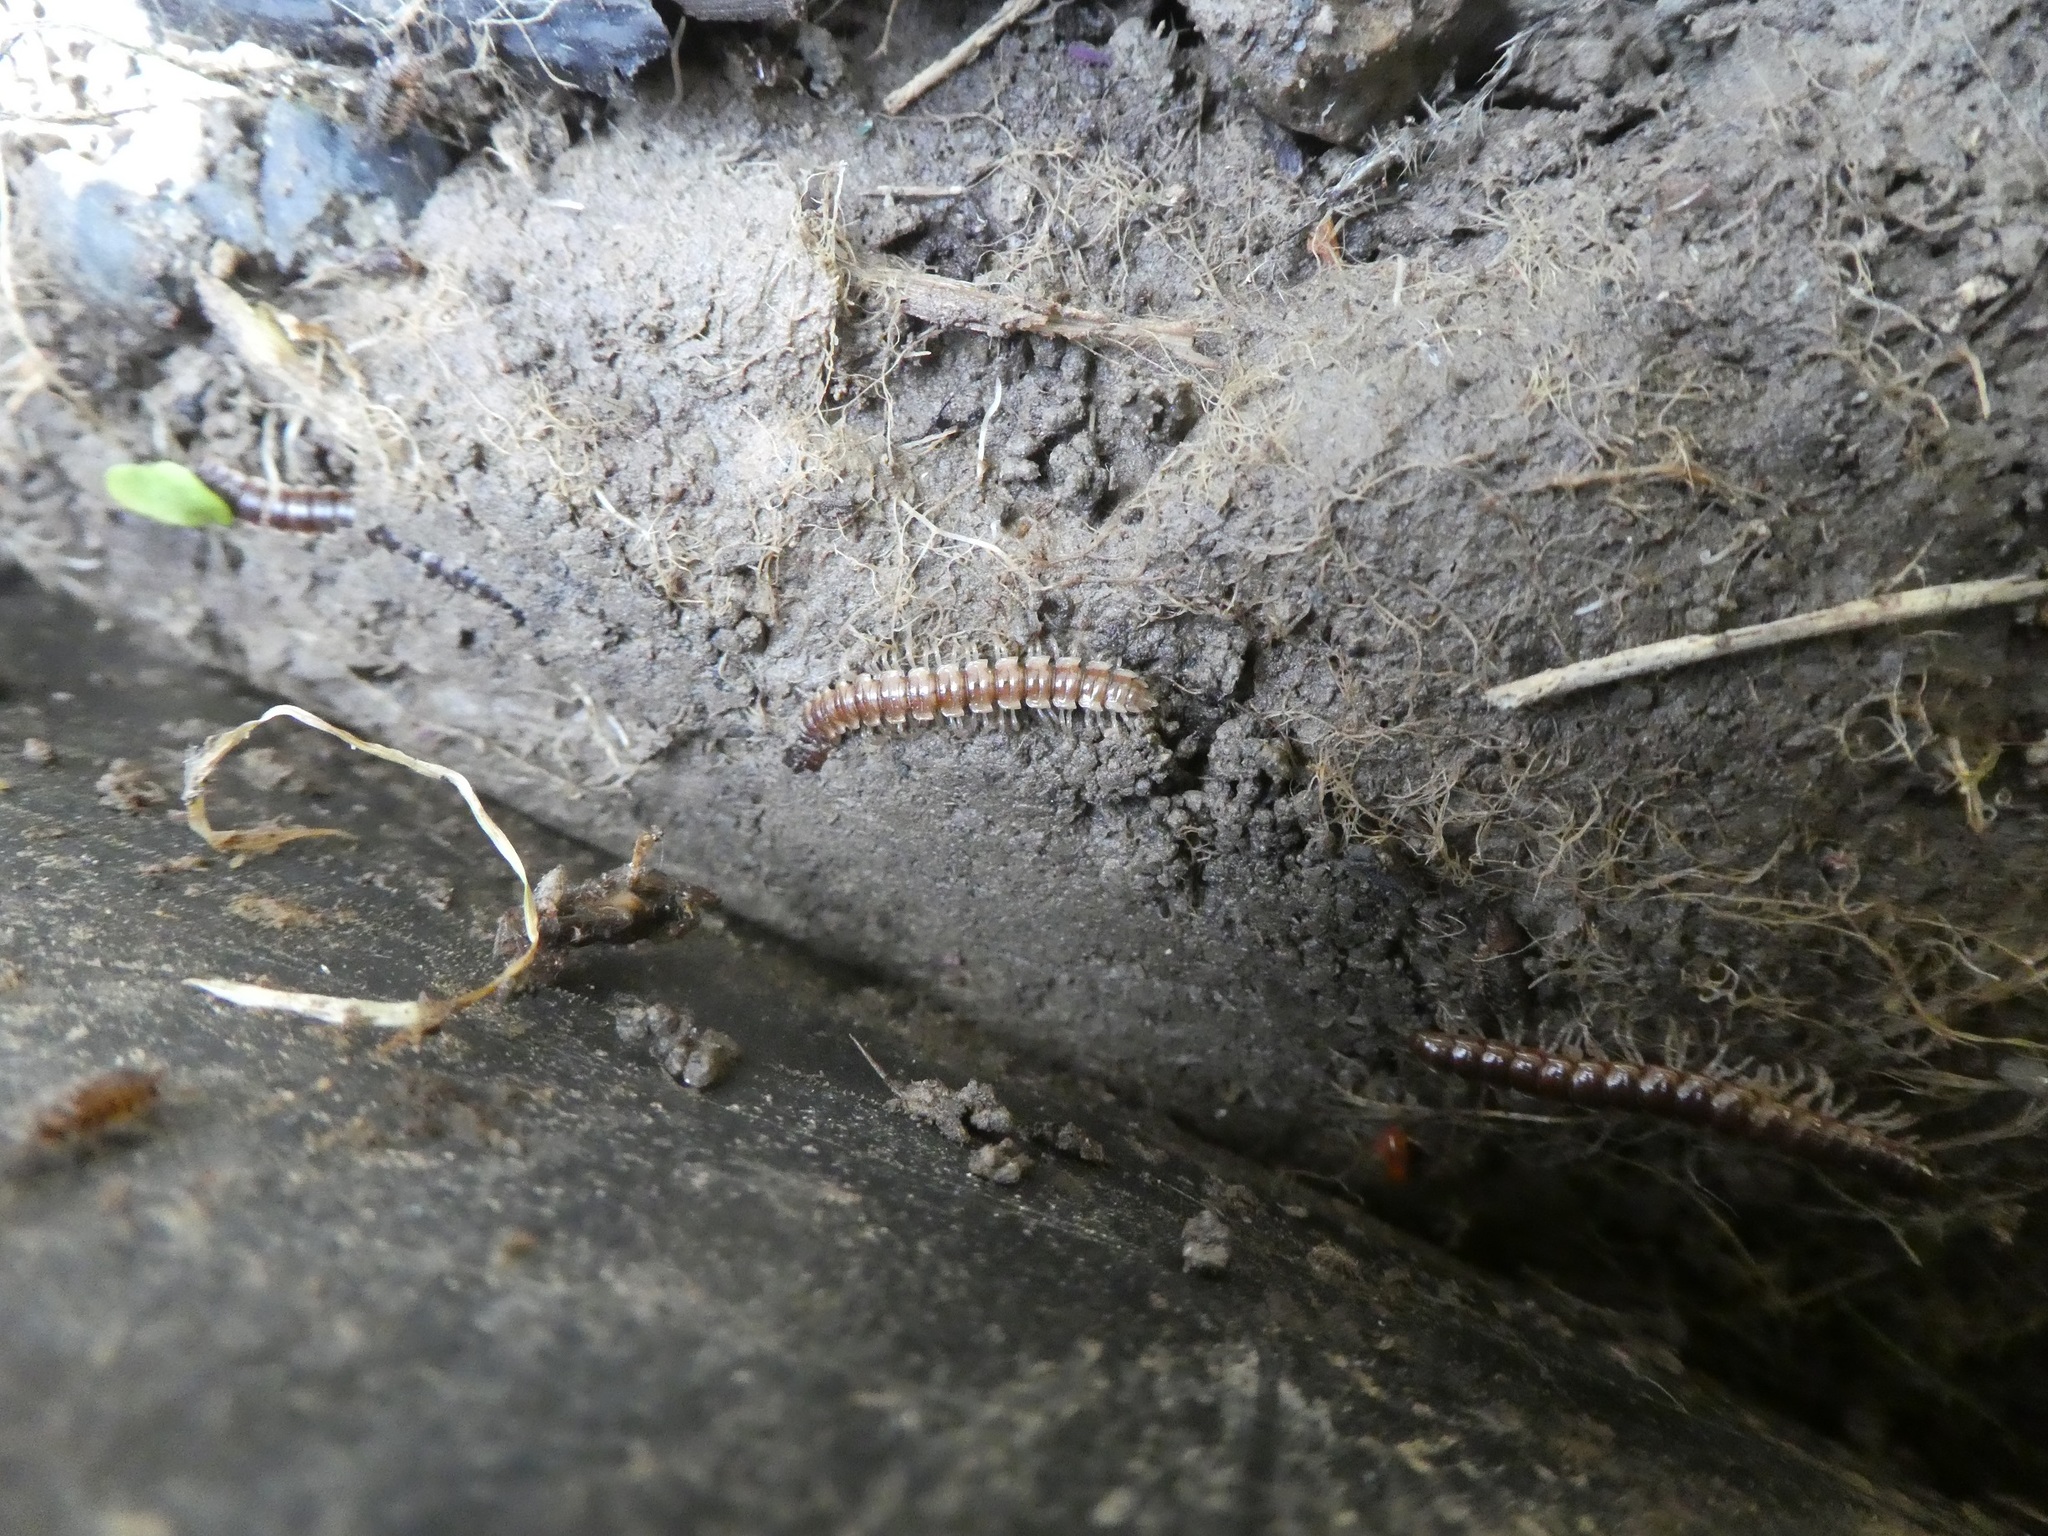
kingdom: Animalia
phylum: Arthropoda
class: Diplopoda
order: Polydesmida
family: Paradoxosomatidae
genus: Oxidus
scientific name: Oxidus gracilis
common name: Greenhouse millipede
